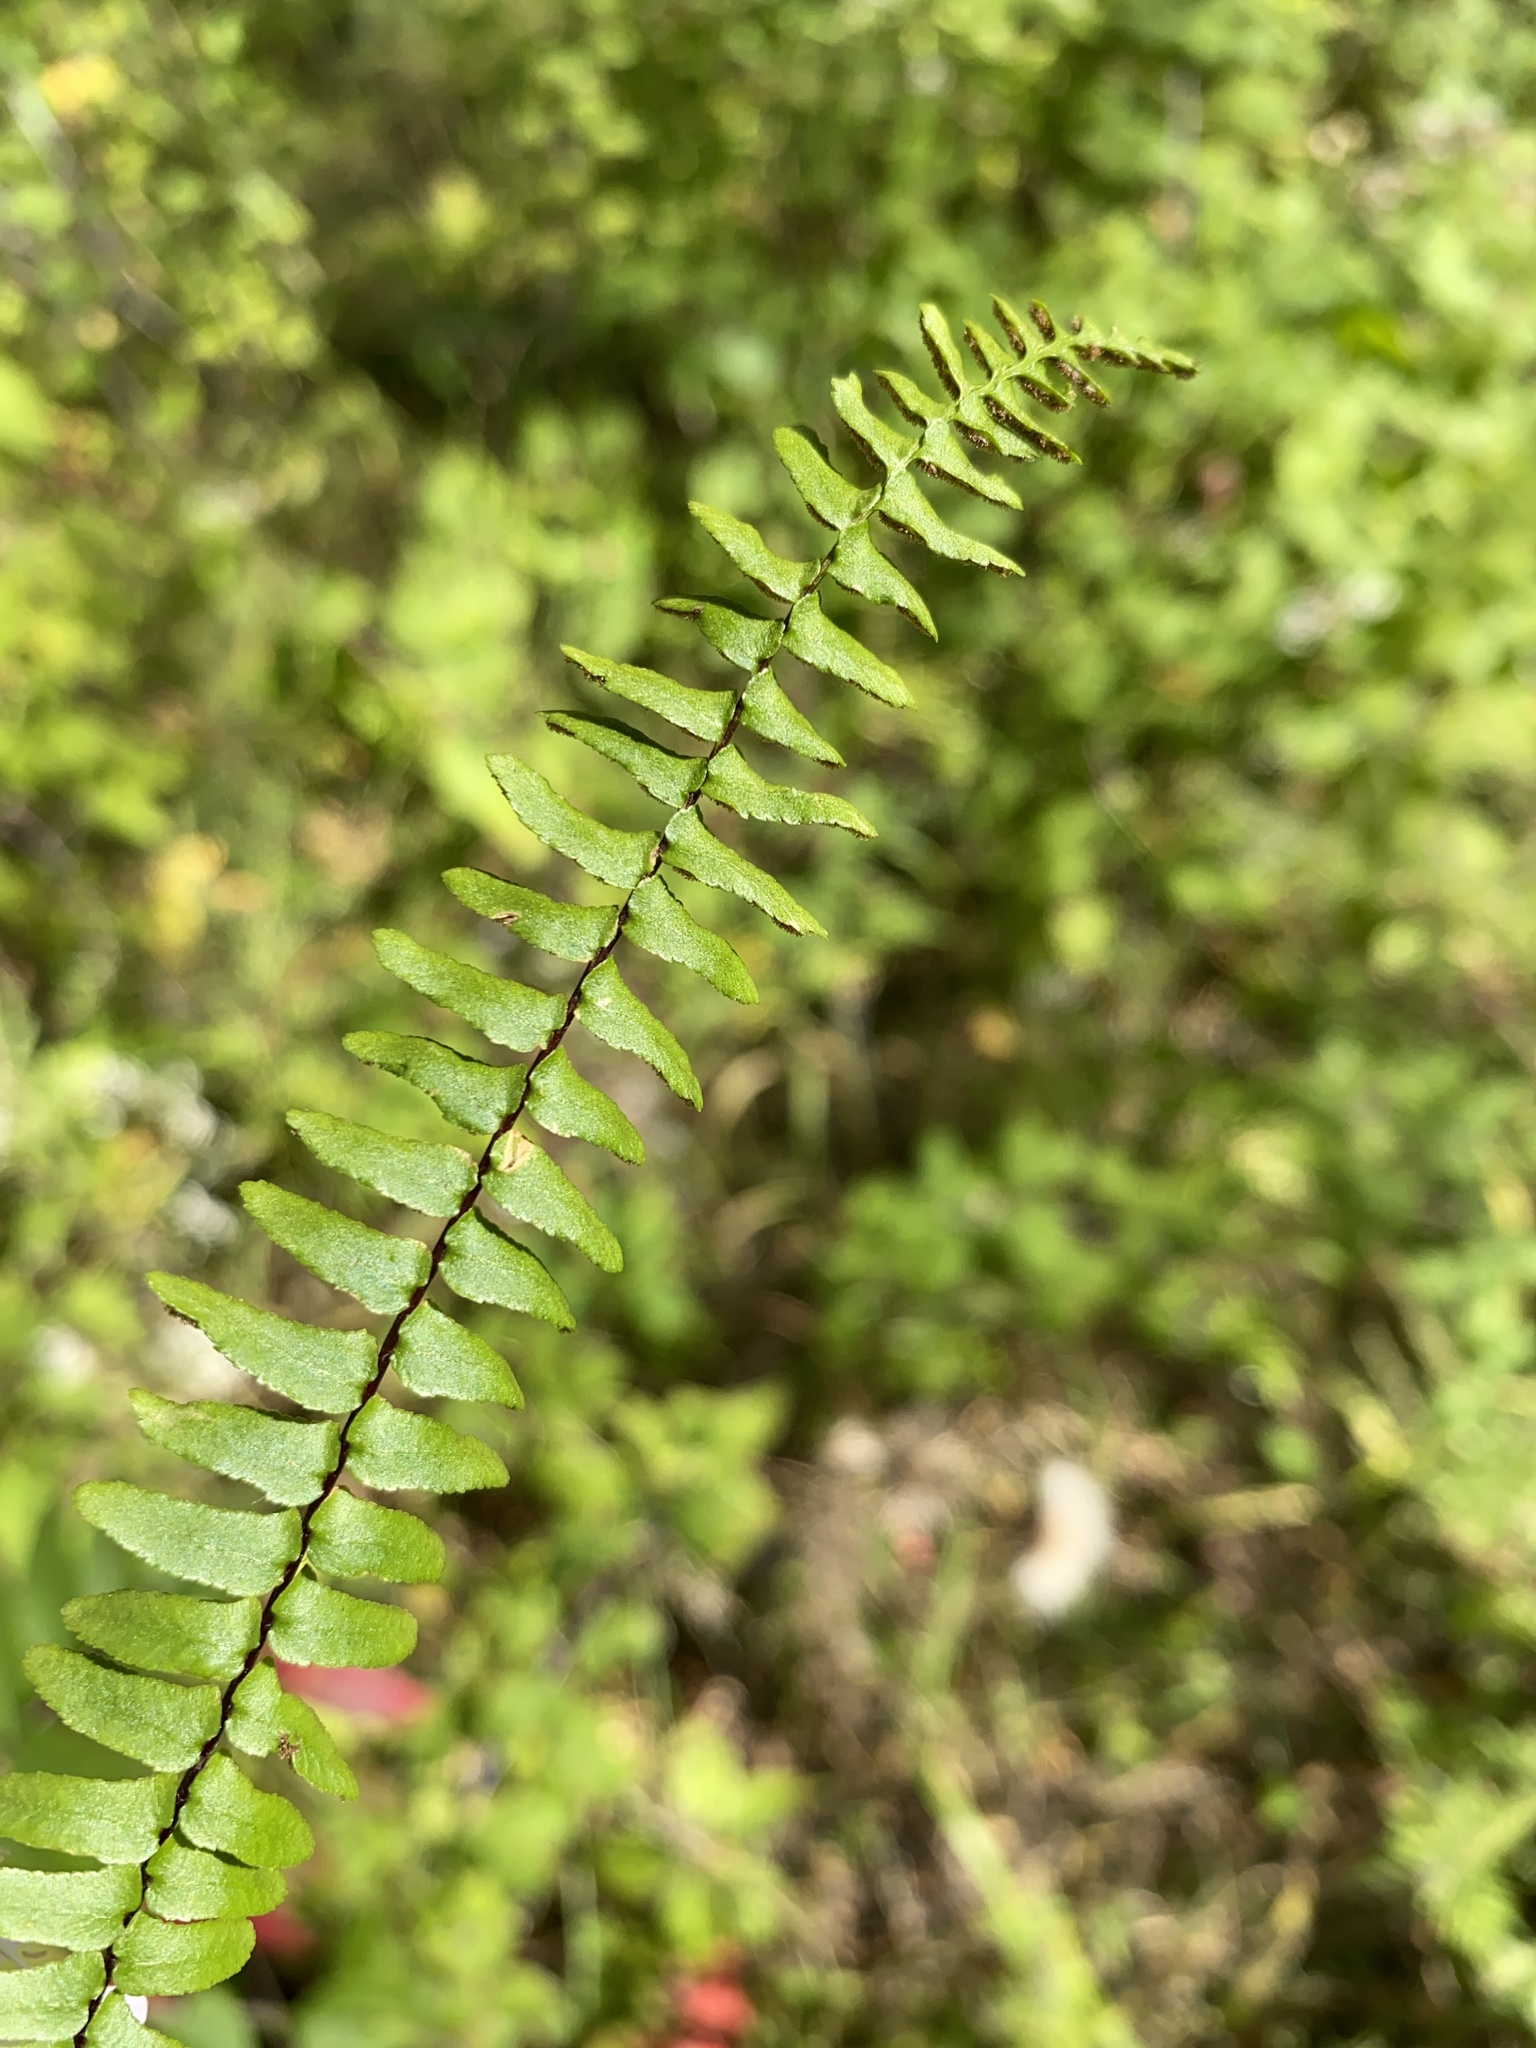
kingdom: Plantae
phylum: Tracheophyta
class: Polypodiopsida
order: Polypodiales
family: Aspleniaceae
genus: Asplenium
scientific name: Asplenium platyneuron
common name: Ebony spleenwort
